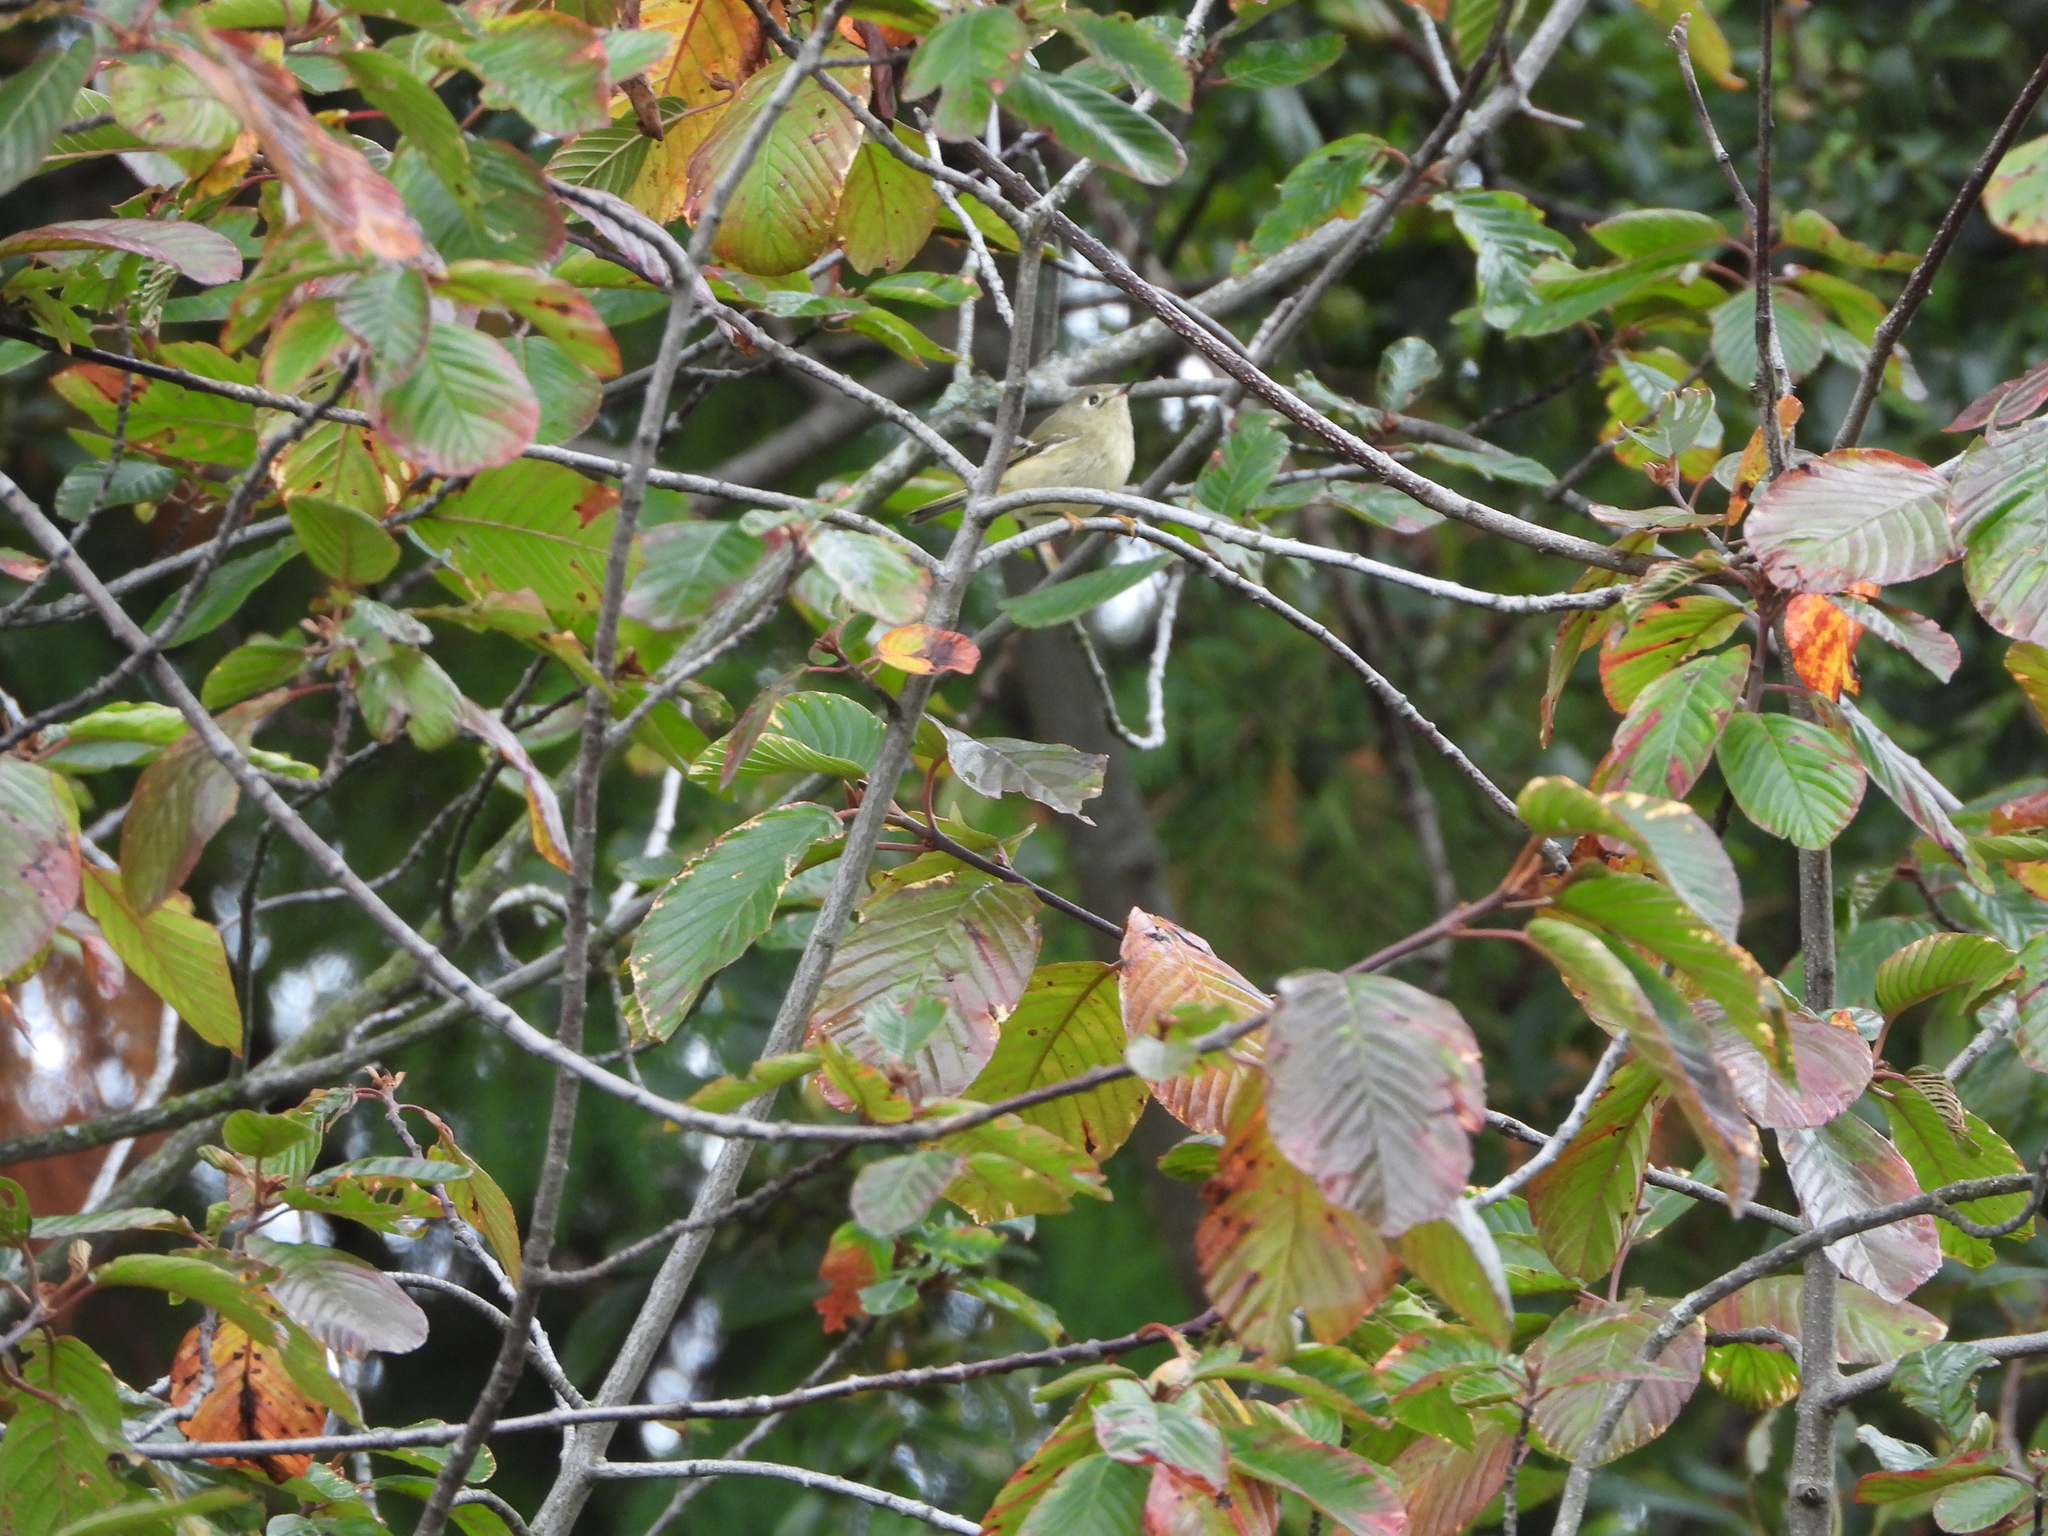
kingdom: Animalia
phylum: Chordata
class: Aves
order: Passeriformes
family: Regulidae
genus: Regulus
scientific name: Regulus calendula
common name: Ruby-crowned kinglet
